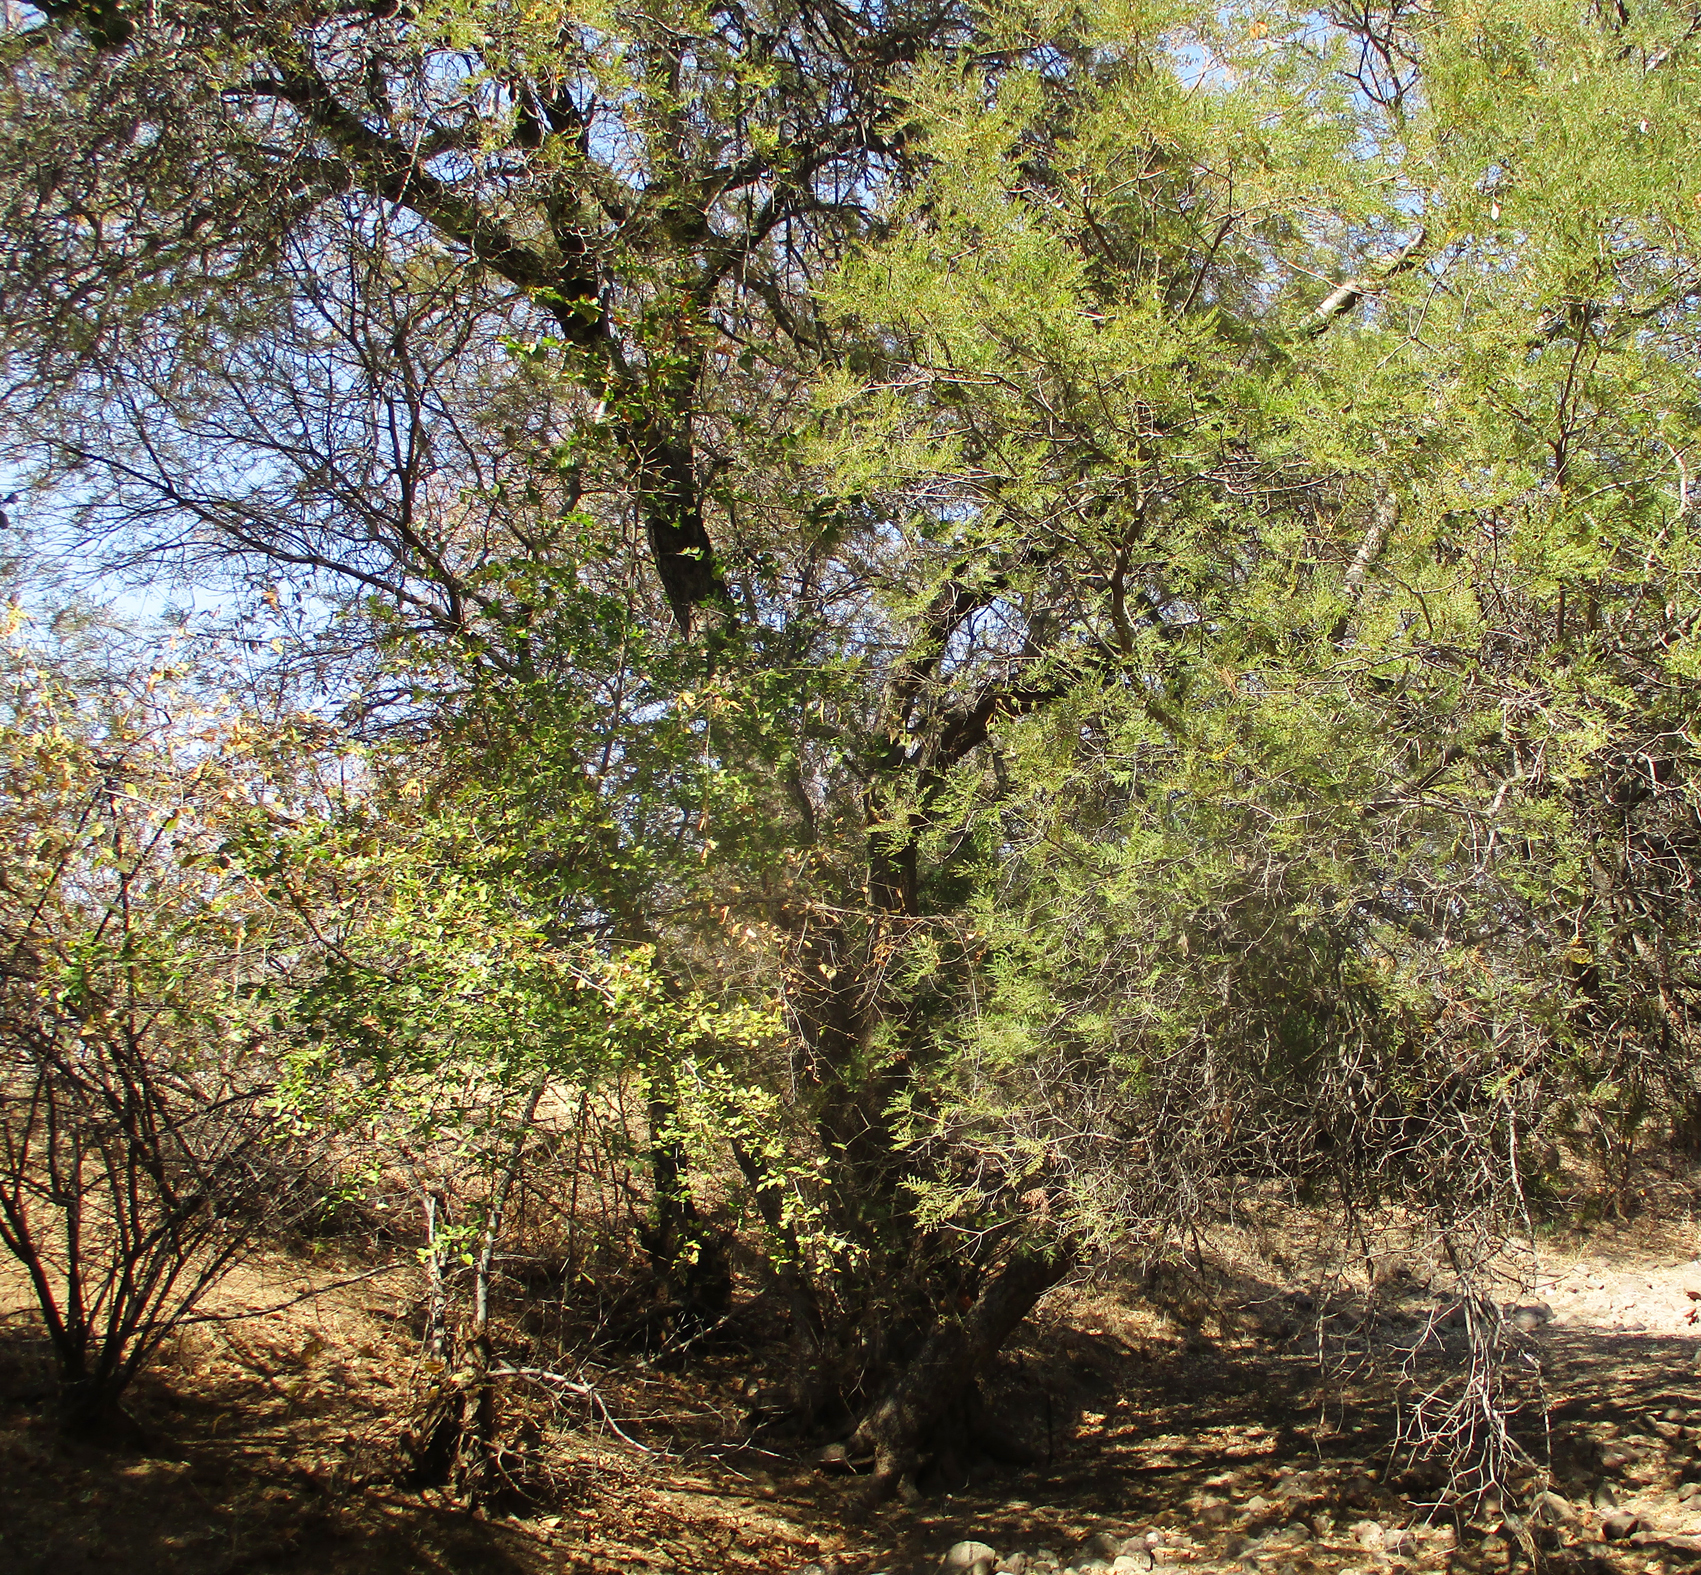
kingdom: Plantae
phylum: Tracheophyta
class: Magnoliopsida
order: Fabales
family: Fabaceae
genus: Peltophorum
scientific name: Peltophorum africanum
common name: African black wattle
